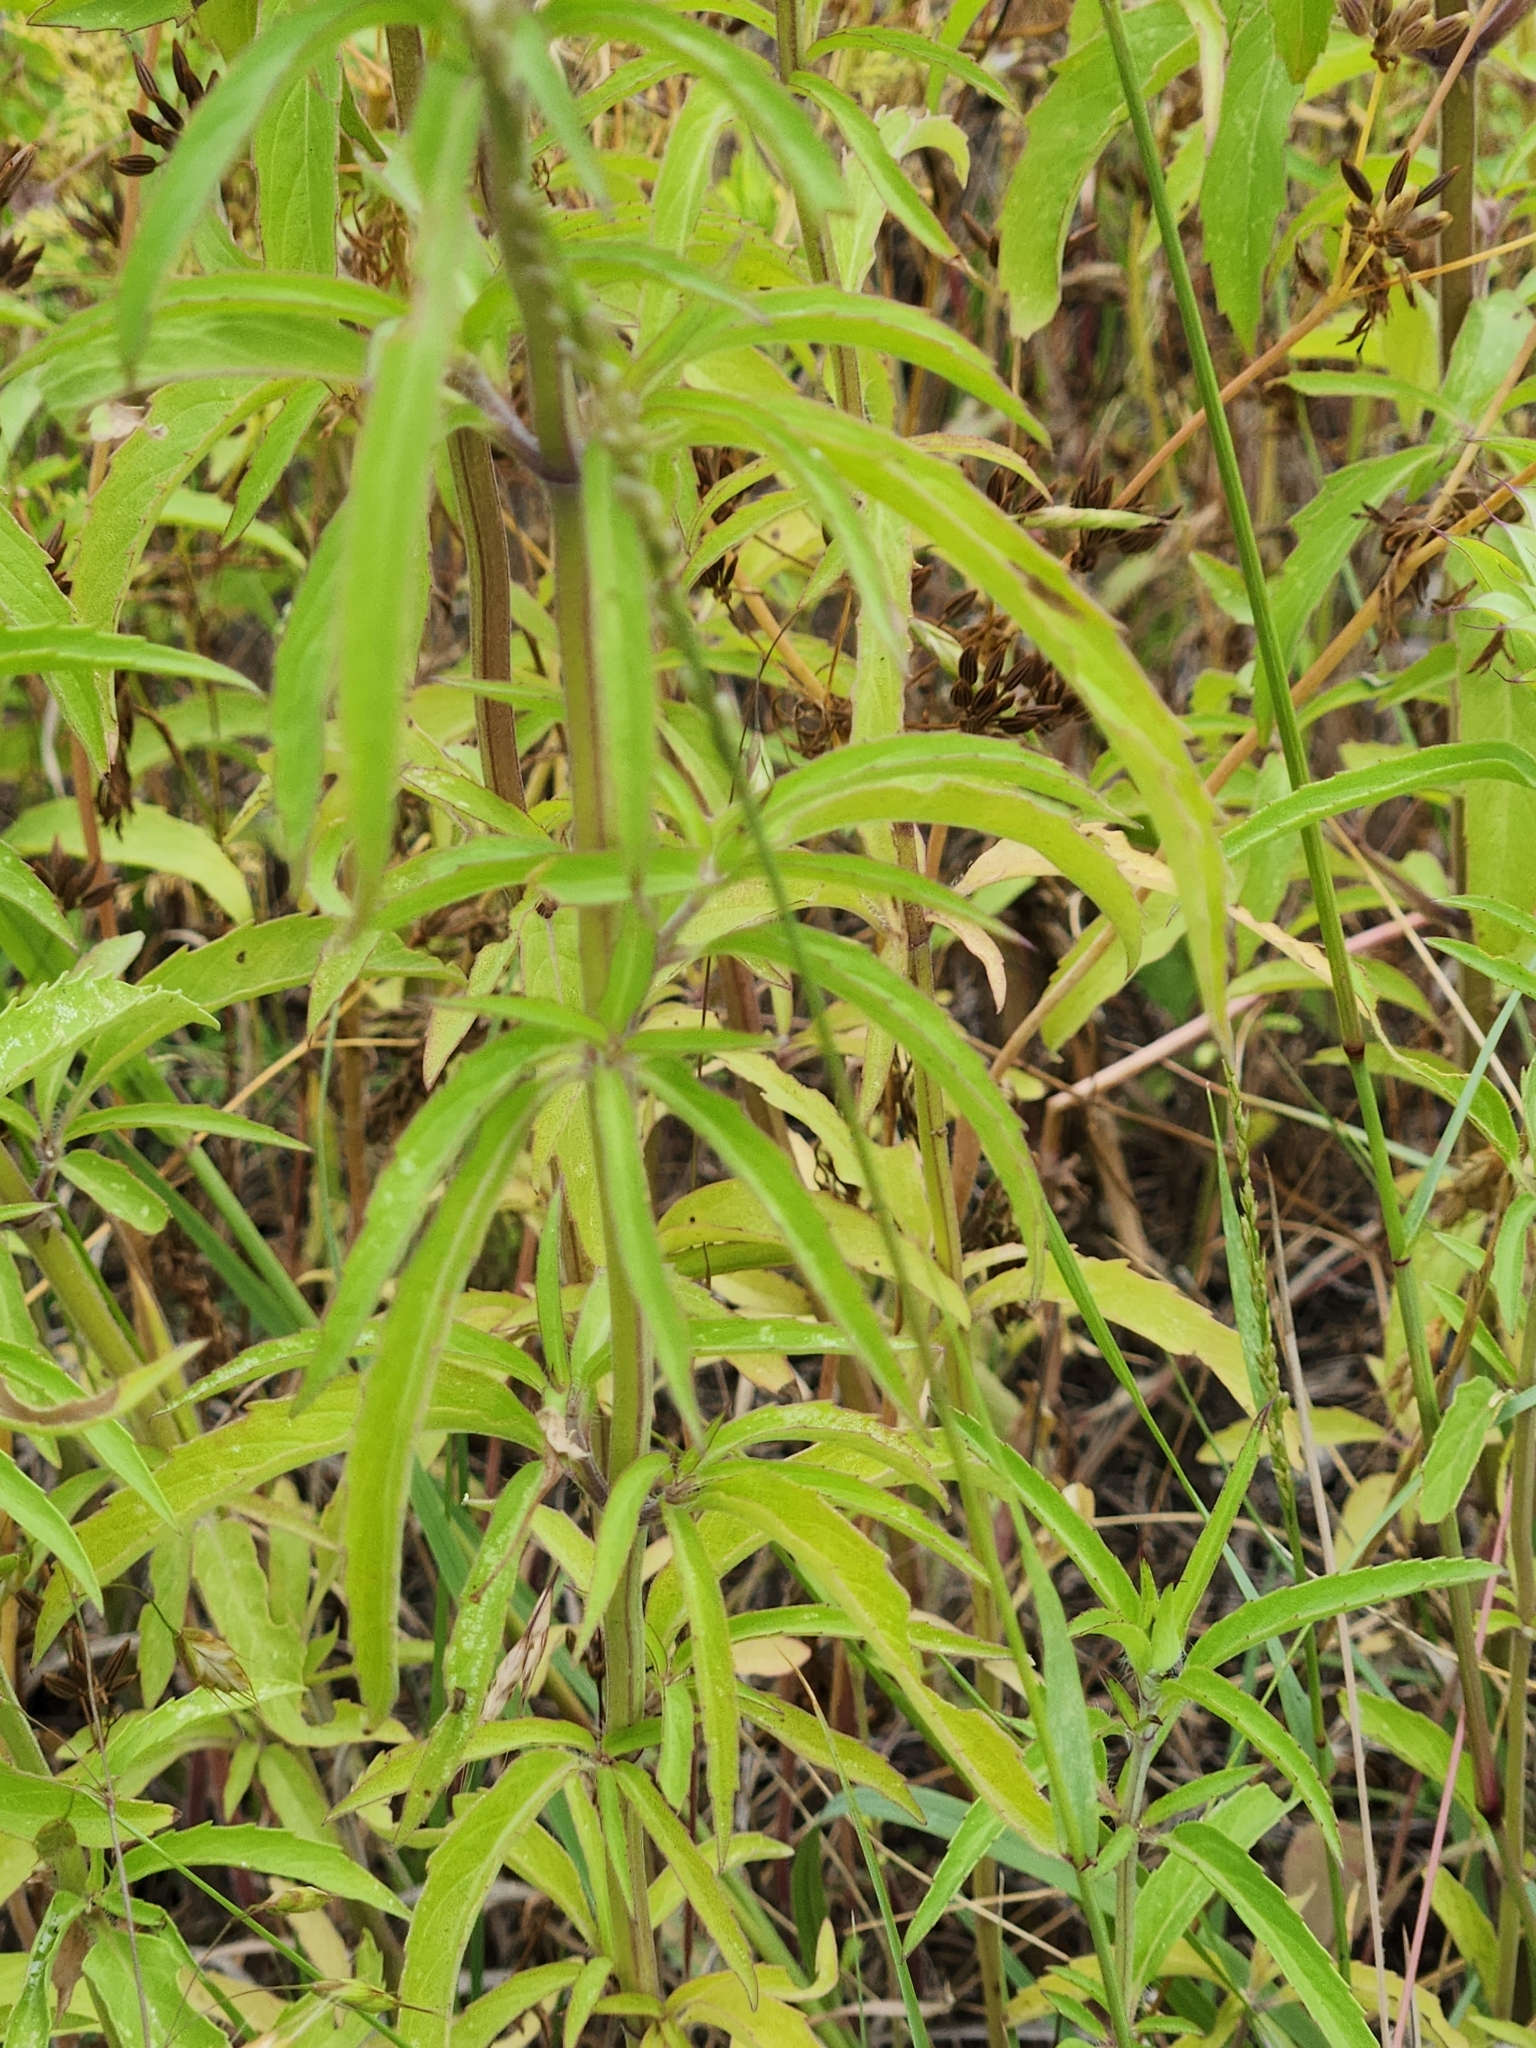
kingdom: Plantae
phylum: Tracheophyta
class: Magnoliopsida
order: Lamiales
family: Lamiaceae
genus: Monarda
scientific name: Monarda citriodora
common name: Lemon beebalm
